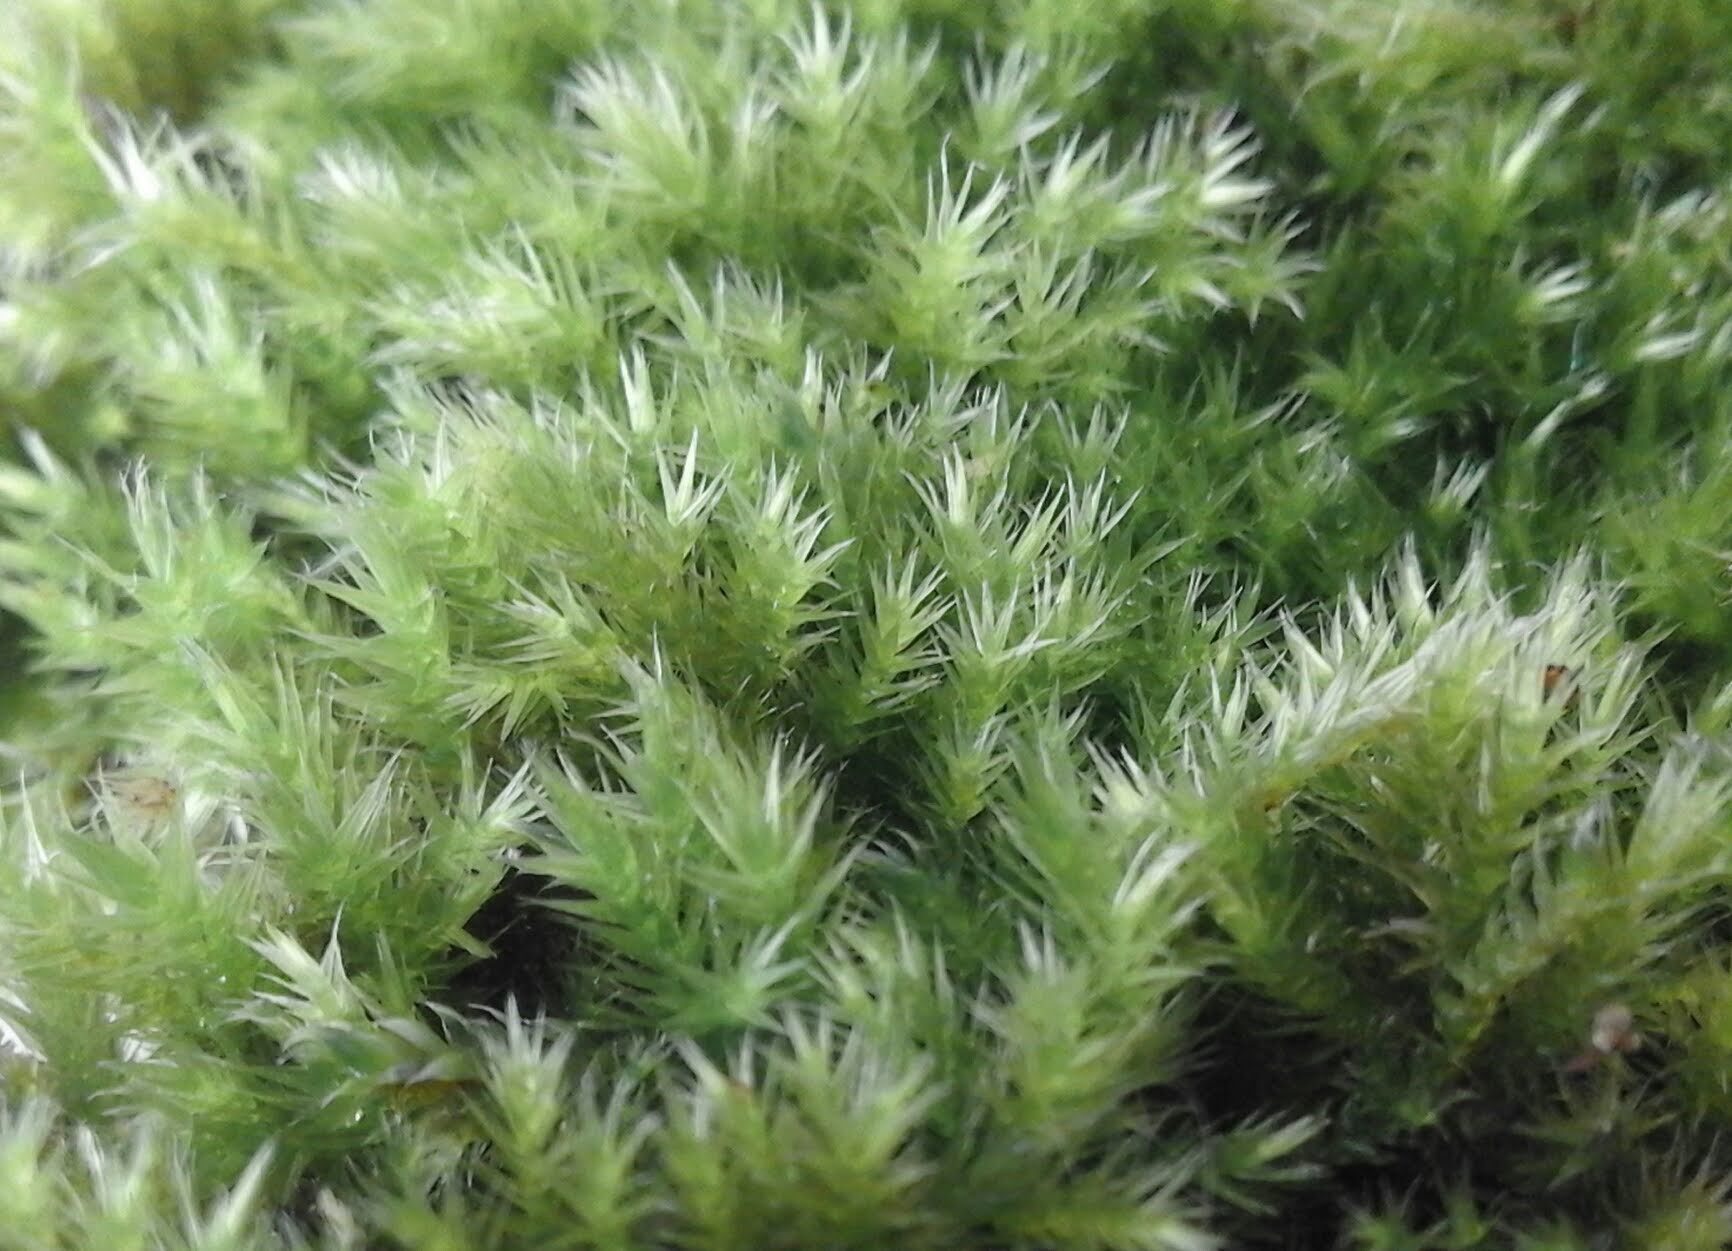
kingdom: Plantae
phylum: Bryophyta
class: Bryopsida
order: Hypnales
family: Brachytheciaceae
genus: Homalothecium
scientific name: Homalothecium sericeum
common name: Silky wall feather-moss
